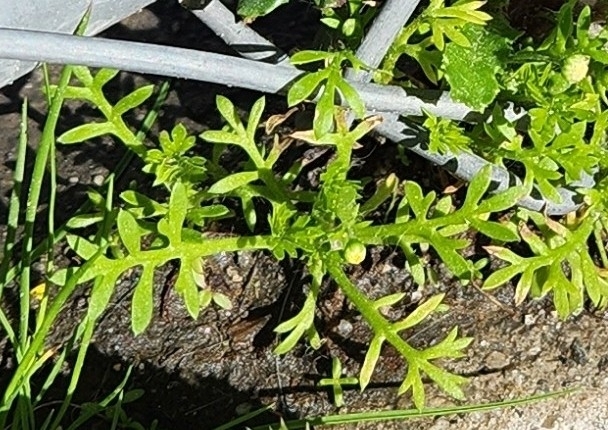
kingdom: Plantae
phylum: Tracheophyta
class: Magnoliopsida
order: Asterales
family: Asteraceae
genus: Cotula
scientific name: Cotula australis
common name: Australian waterbuttons
